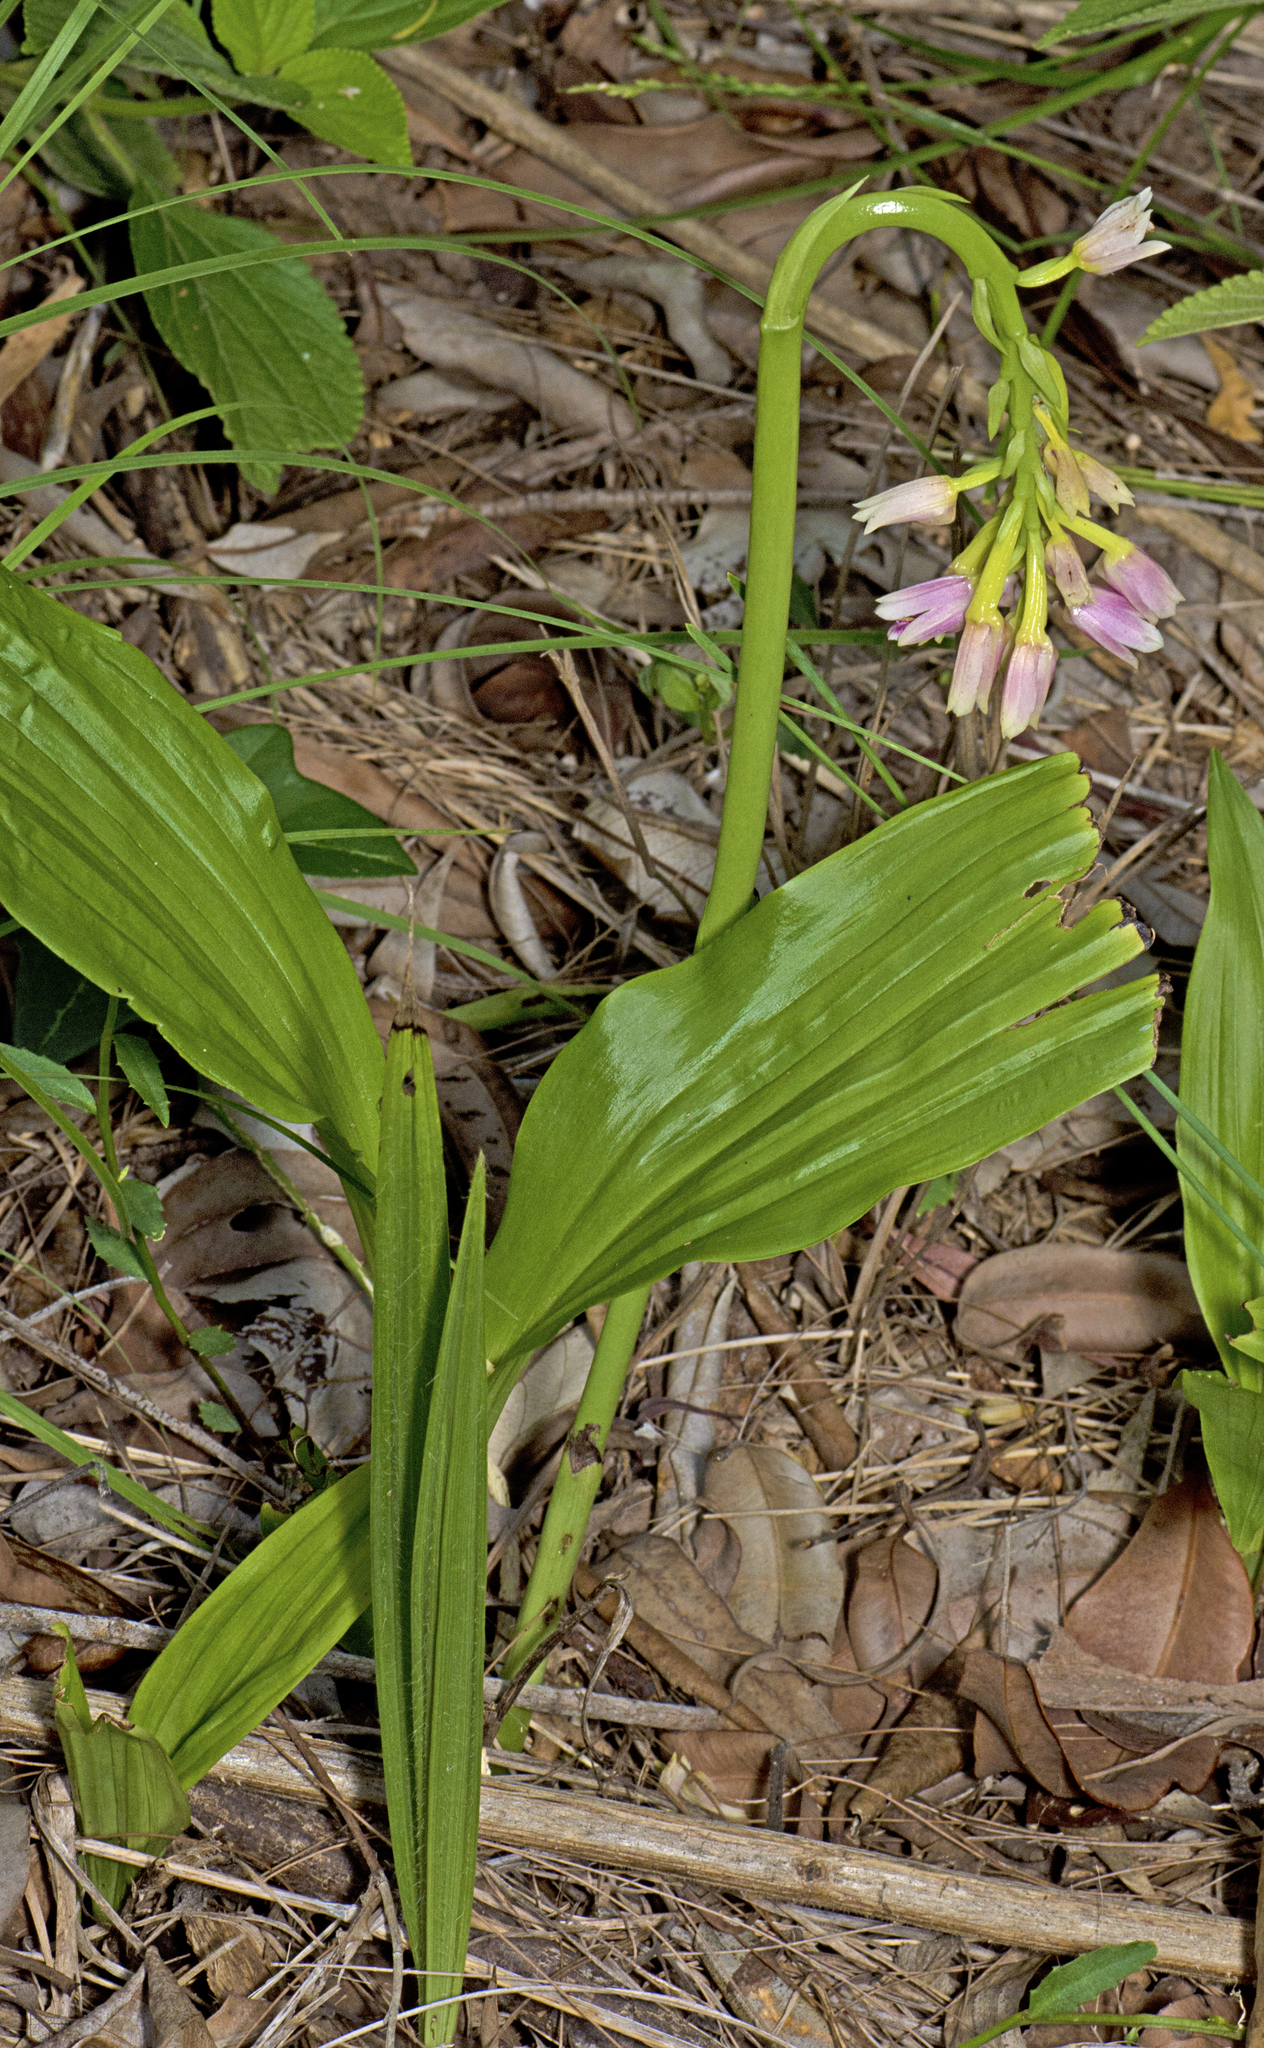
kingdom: Plantae
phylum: Tracheophyta
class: Liliopsida
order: Asparagales
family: Orchidaceae
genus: Eulophia
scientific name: Eulophia cernua
